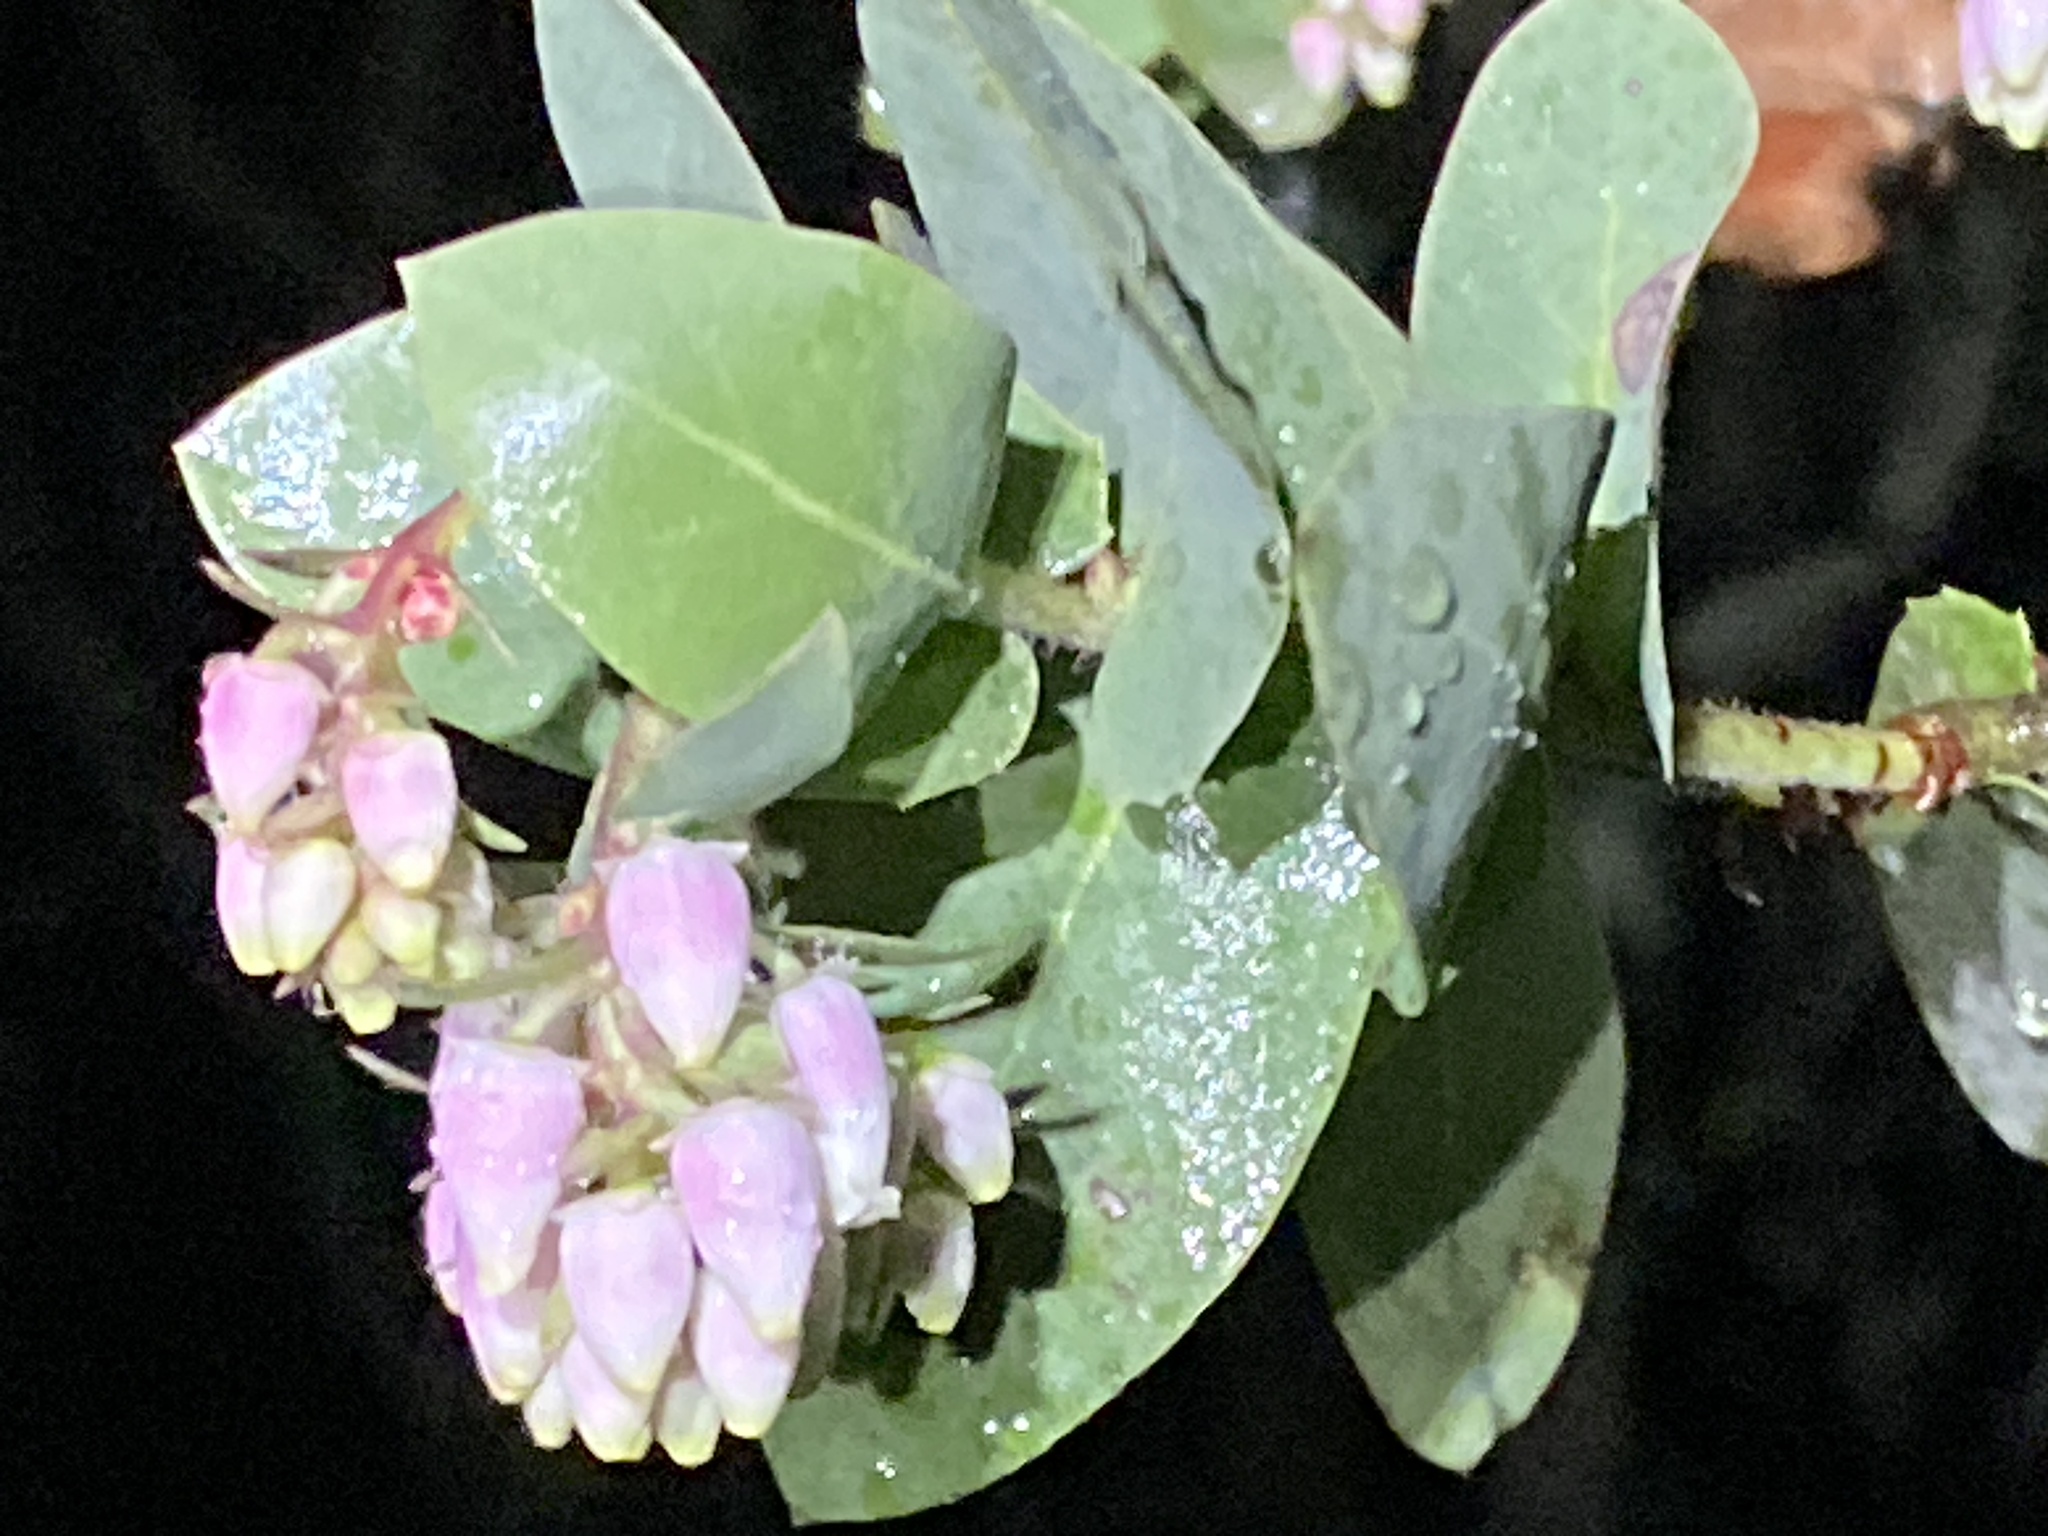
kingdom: Plantae
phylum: Tracheophyta
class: Magnoliopsida
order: Ericales
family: Ericaceae
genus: Arctostaphylos
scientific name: Arctostaphylos pallida
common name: Pallid manzanita
